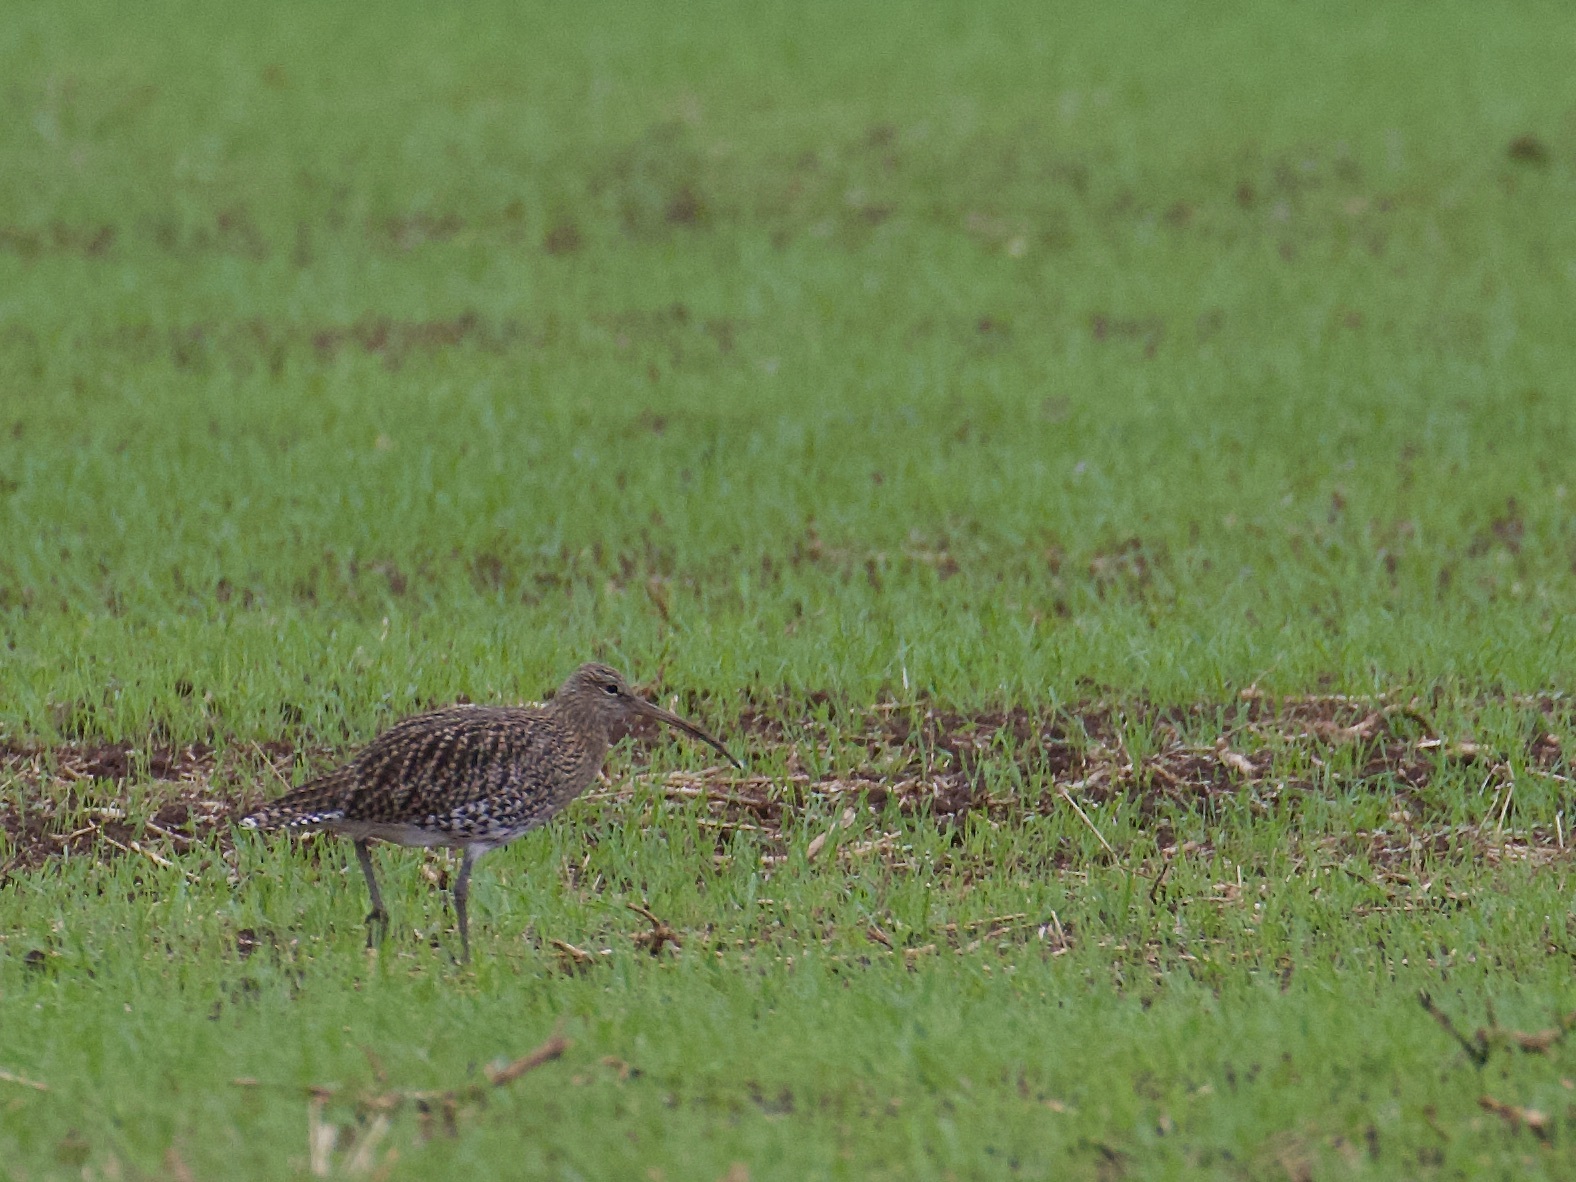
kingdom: Animalia
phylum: Chordata
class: Aves
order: Charadriiformes
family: Scolopacidae
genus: Numenius
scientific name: Numenius arquata
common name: Eurasian curlew
